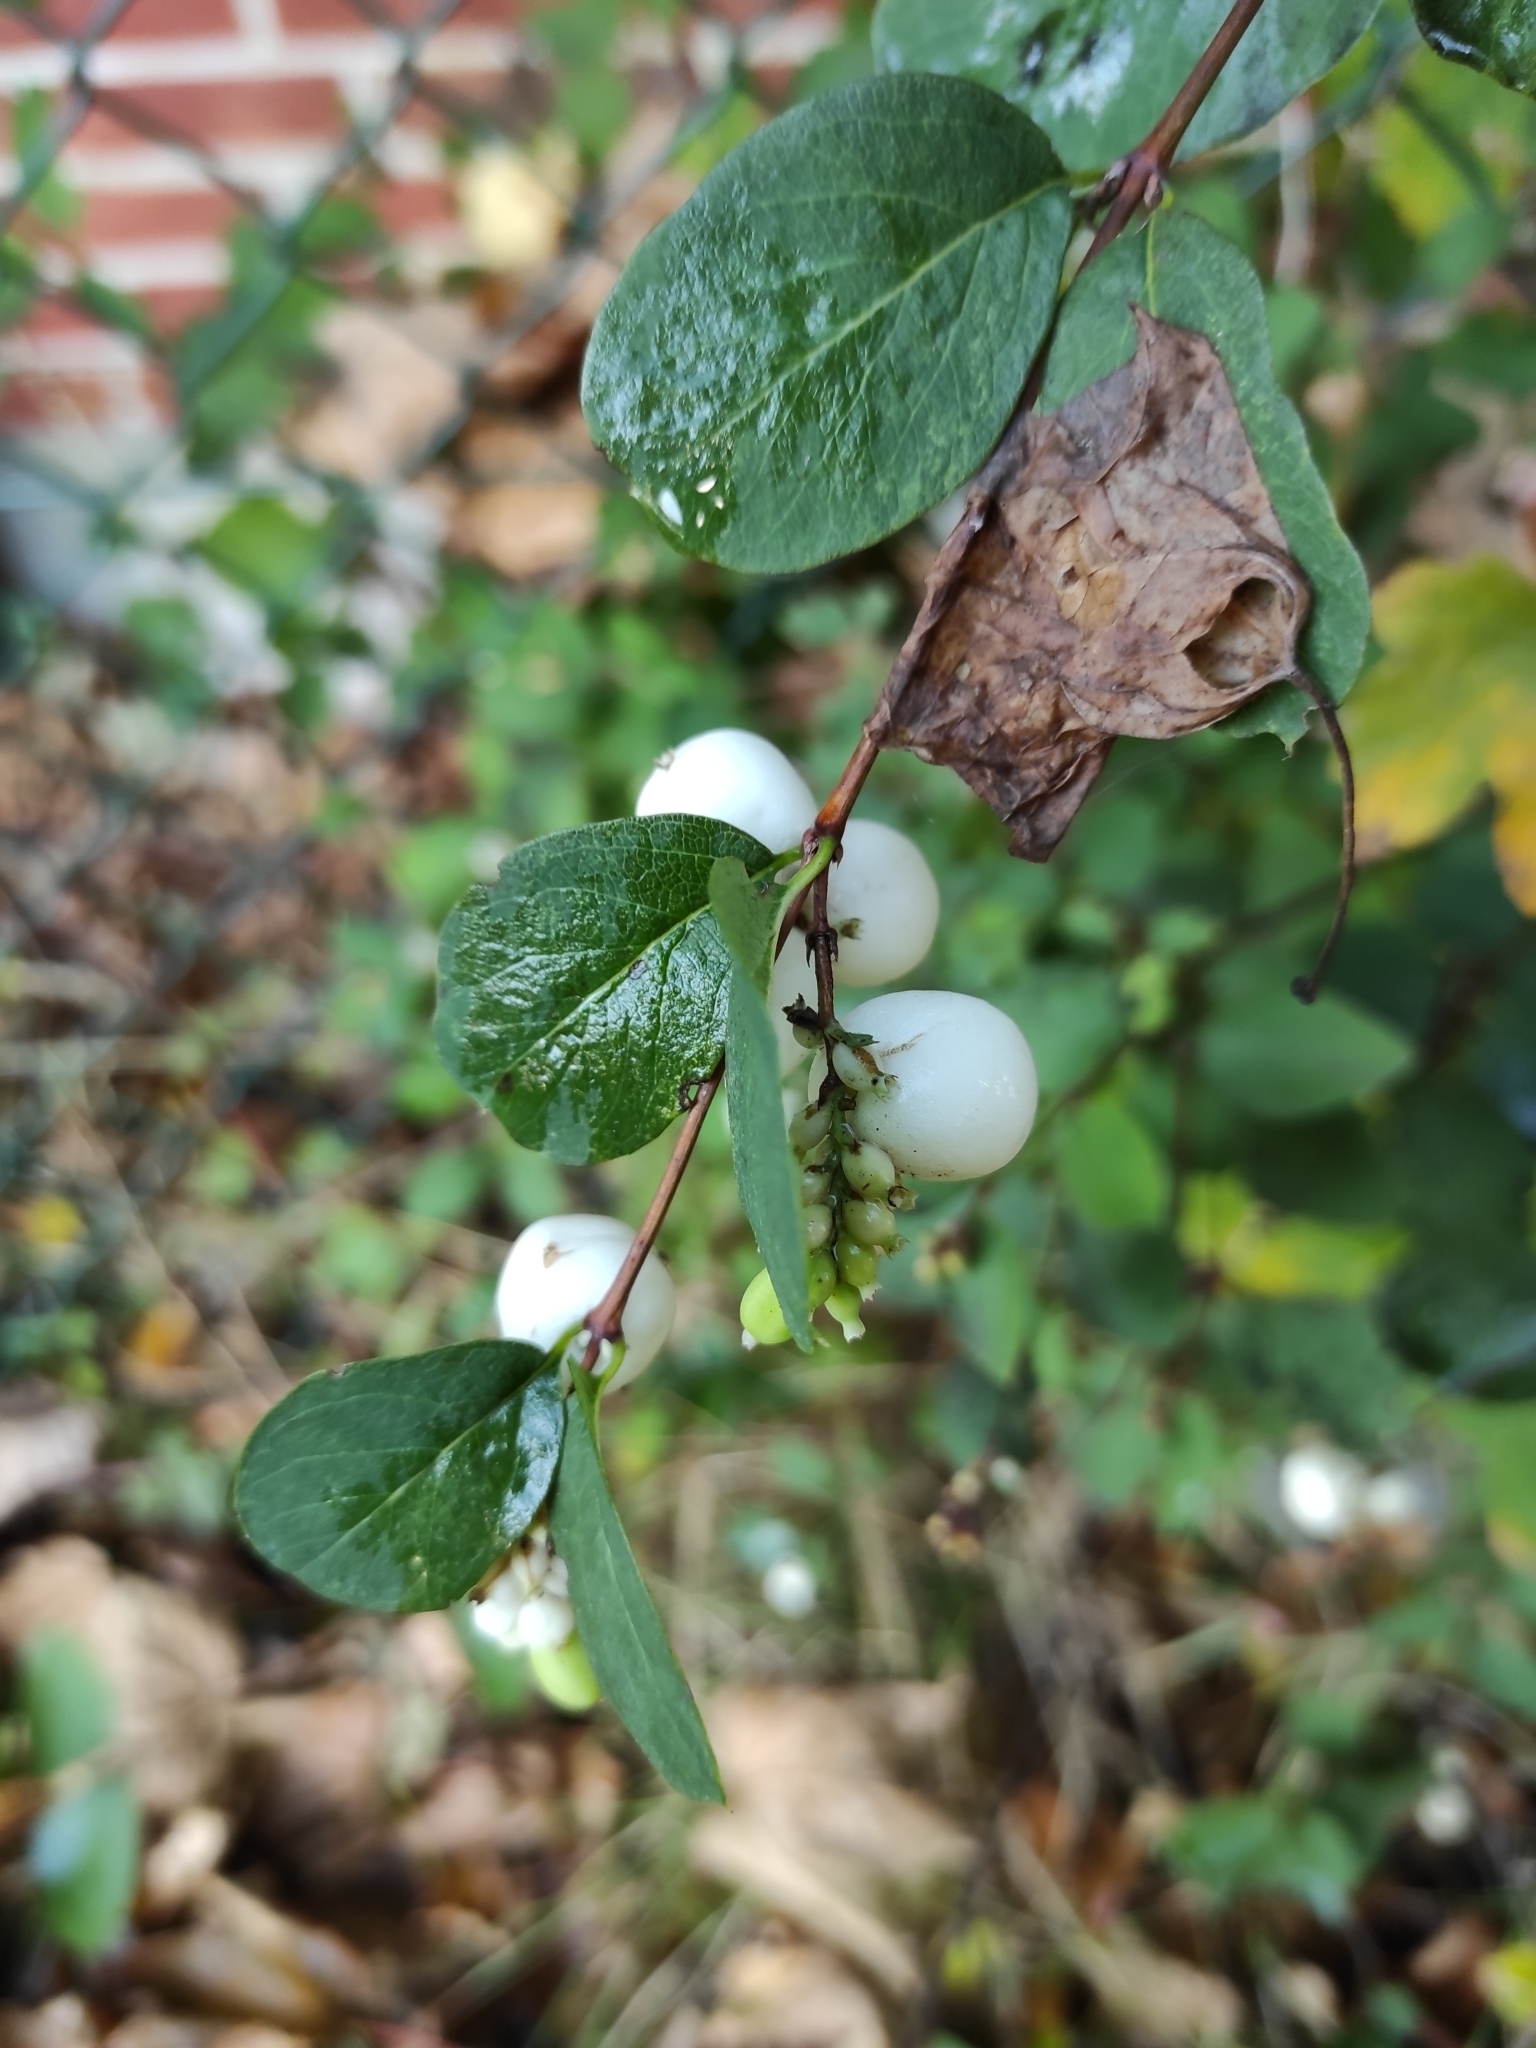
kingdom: Plantae
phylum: Tracheophyta
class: Magnoliopsida
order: Dipsacales
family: Caprifoliaceae
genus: Symphoricarpos
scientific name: Symphoricarpos albus
